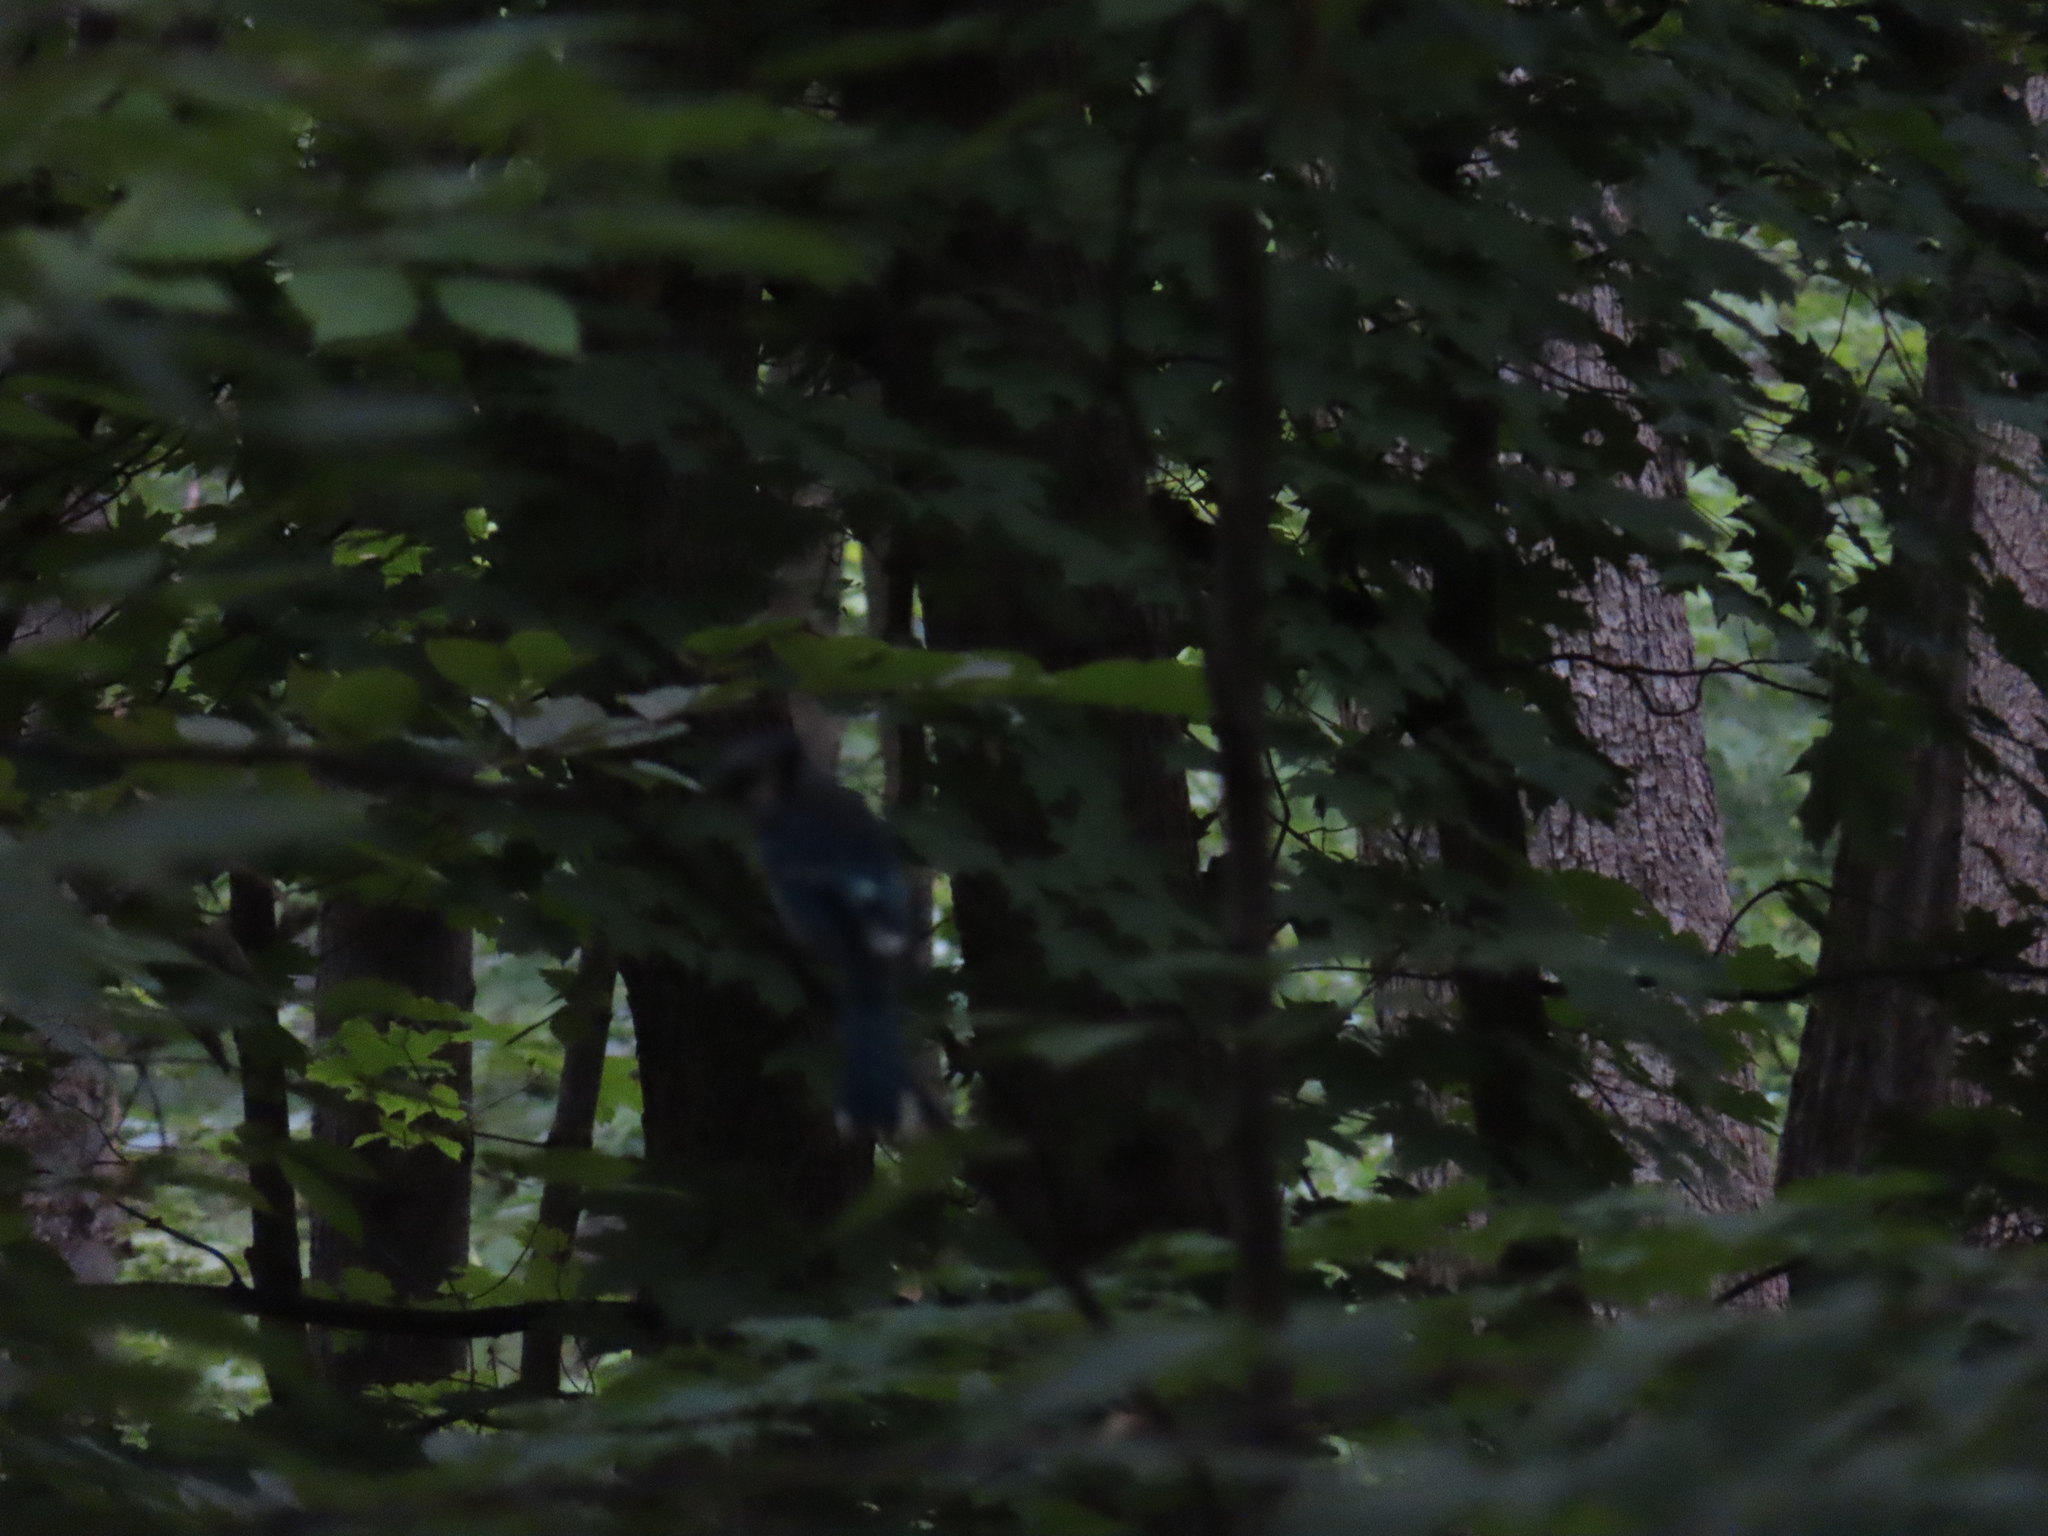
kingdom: Animalia
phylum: Chordata
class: Aves
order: Passeriformes
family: Corvidae
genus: Cyanocitta
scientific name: Cyanocitta cristata
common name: Blue jay
